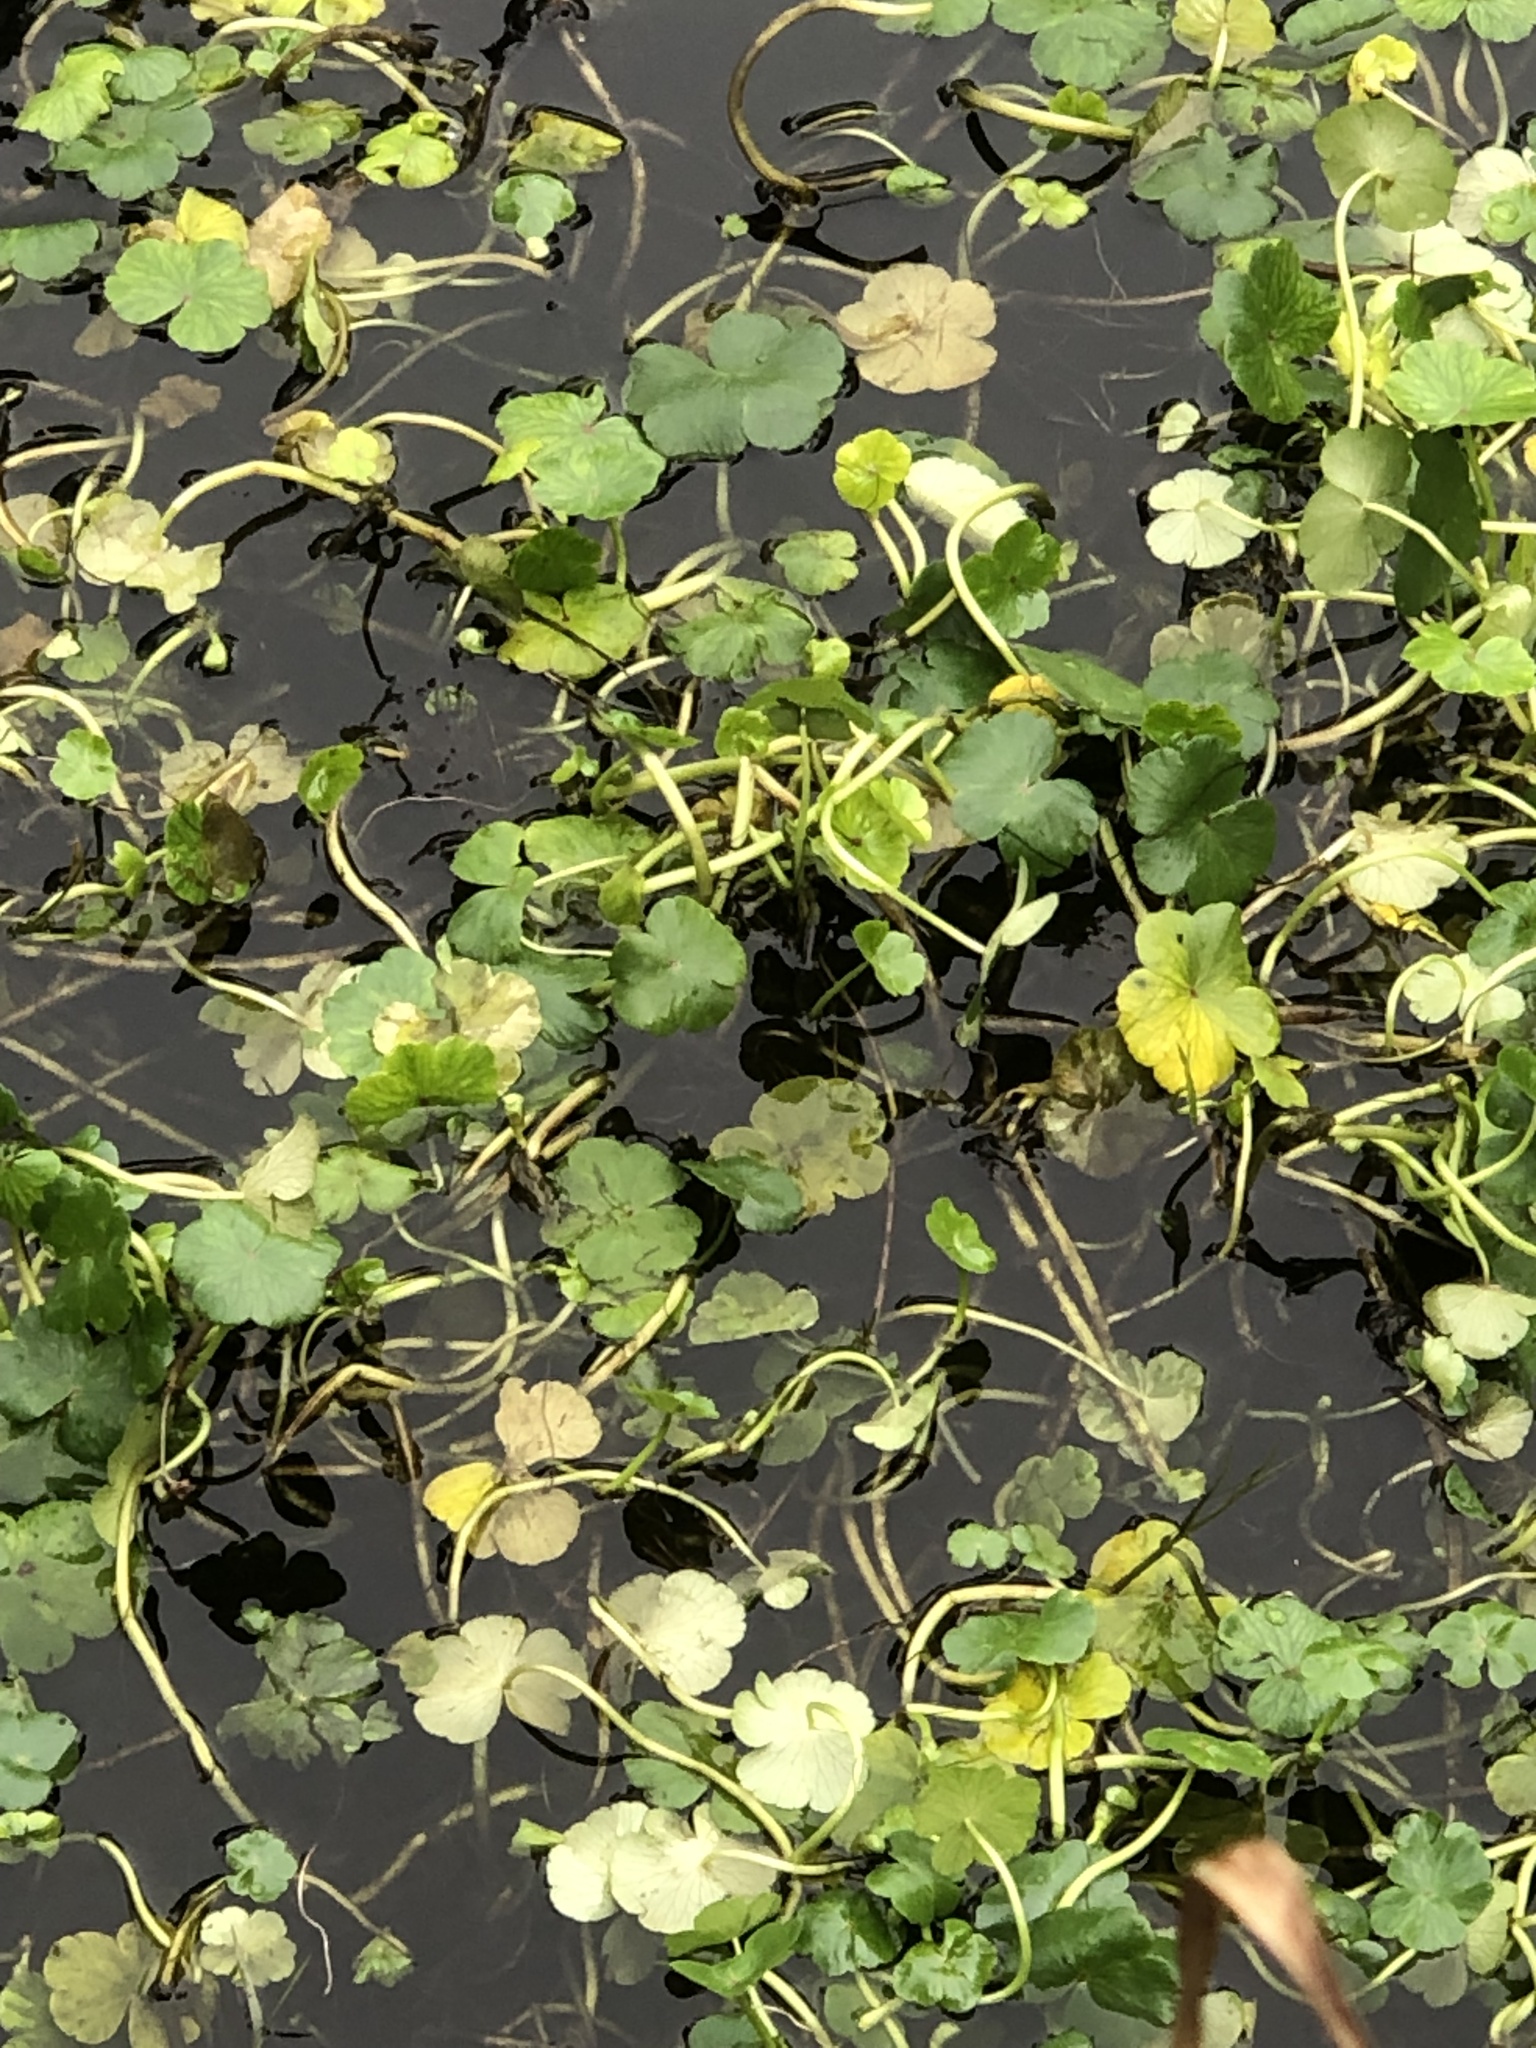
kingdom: Plantae
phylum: Tracheophyta
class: Magnoliopsida
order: Apiales
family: Araliaceae
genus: Hydrocotyle
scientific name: Hydrocotyle ranunculoides
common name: Floating pennywort
